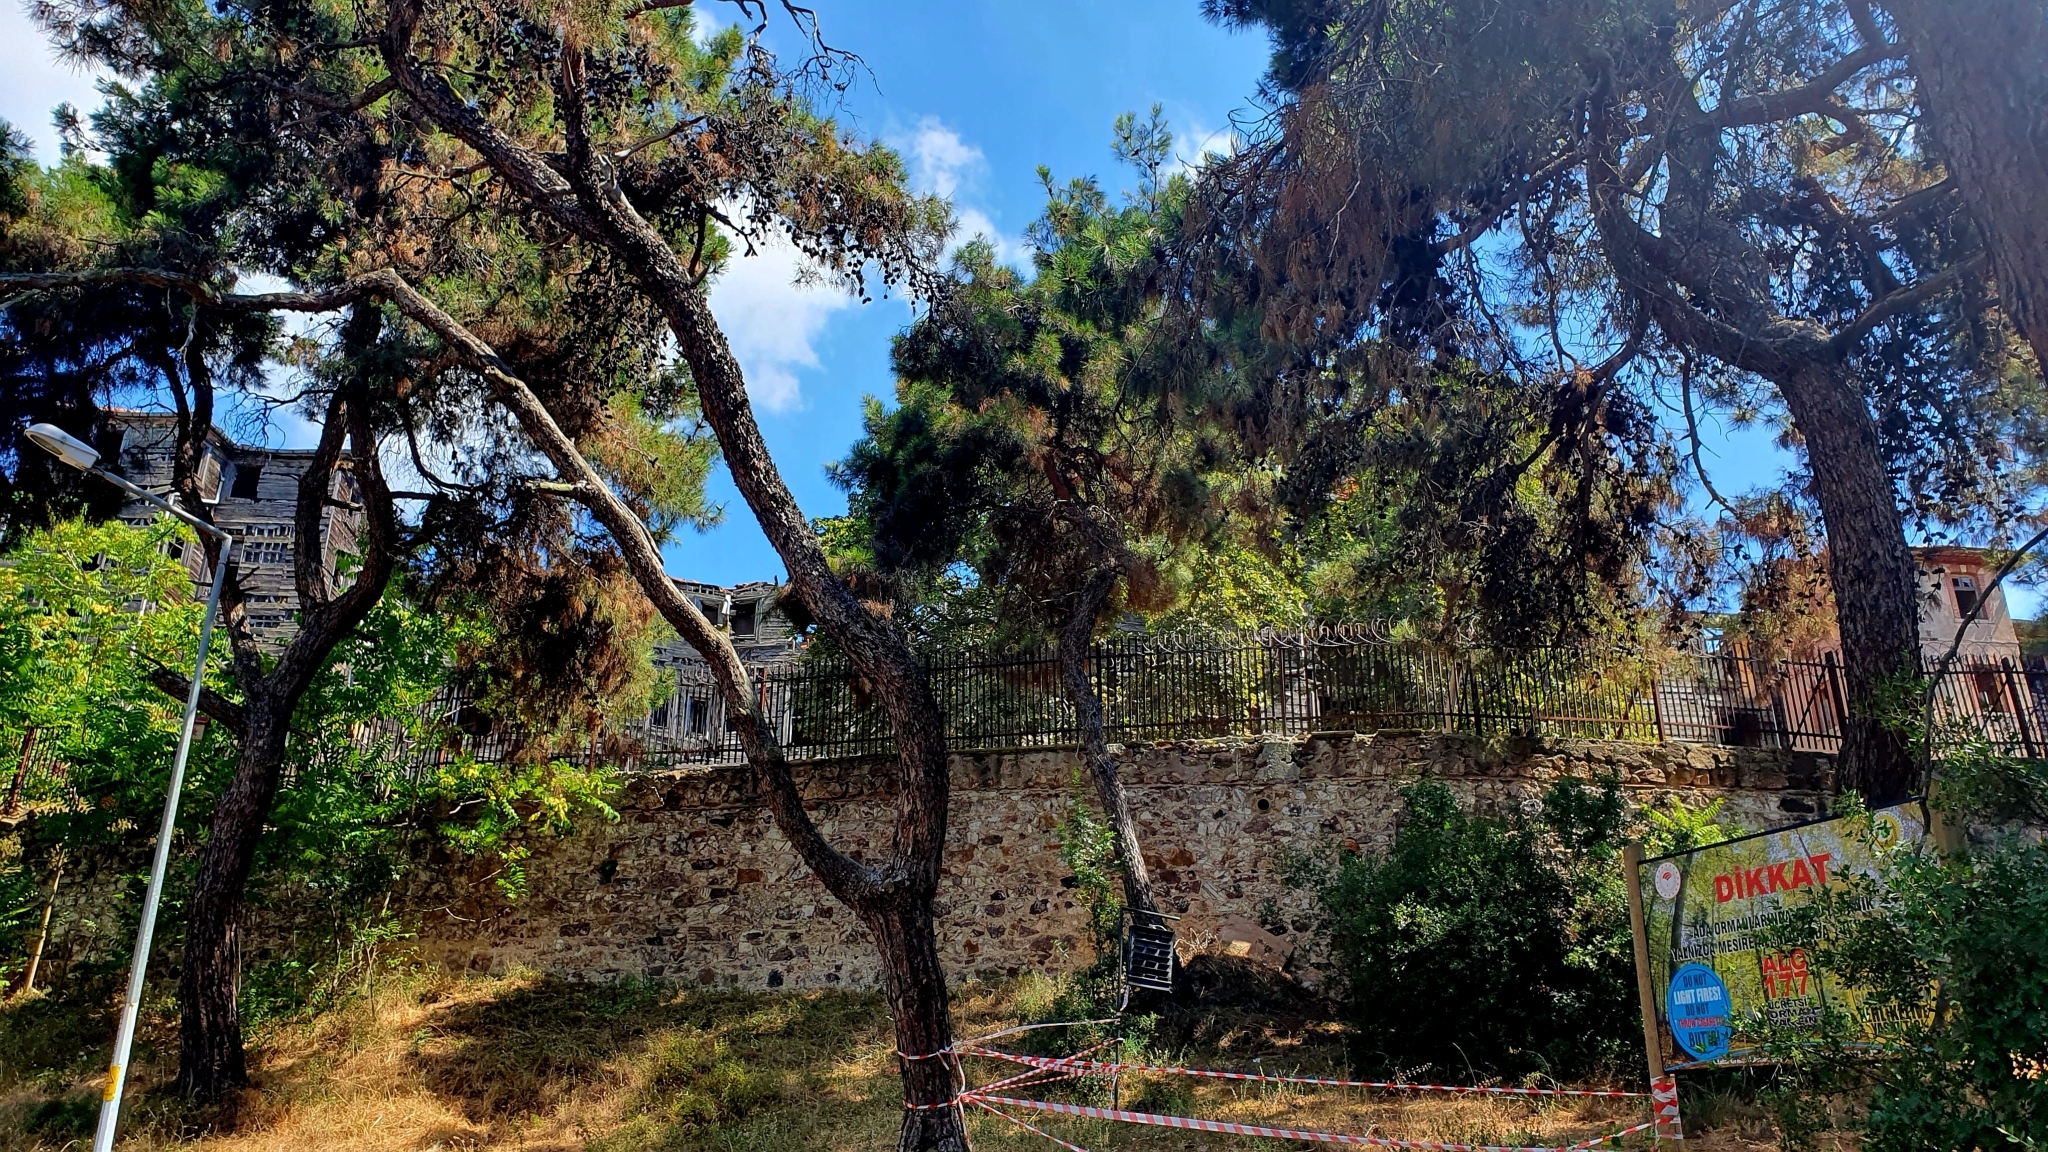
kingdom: Plantae
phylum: Tracheophyta
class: Pinopsida
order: Pinales
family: Pinaceae
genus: Pinus
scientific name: Pinus brutia
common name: Turkish pine
